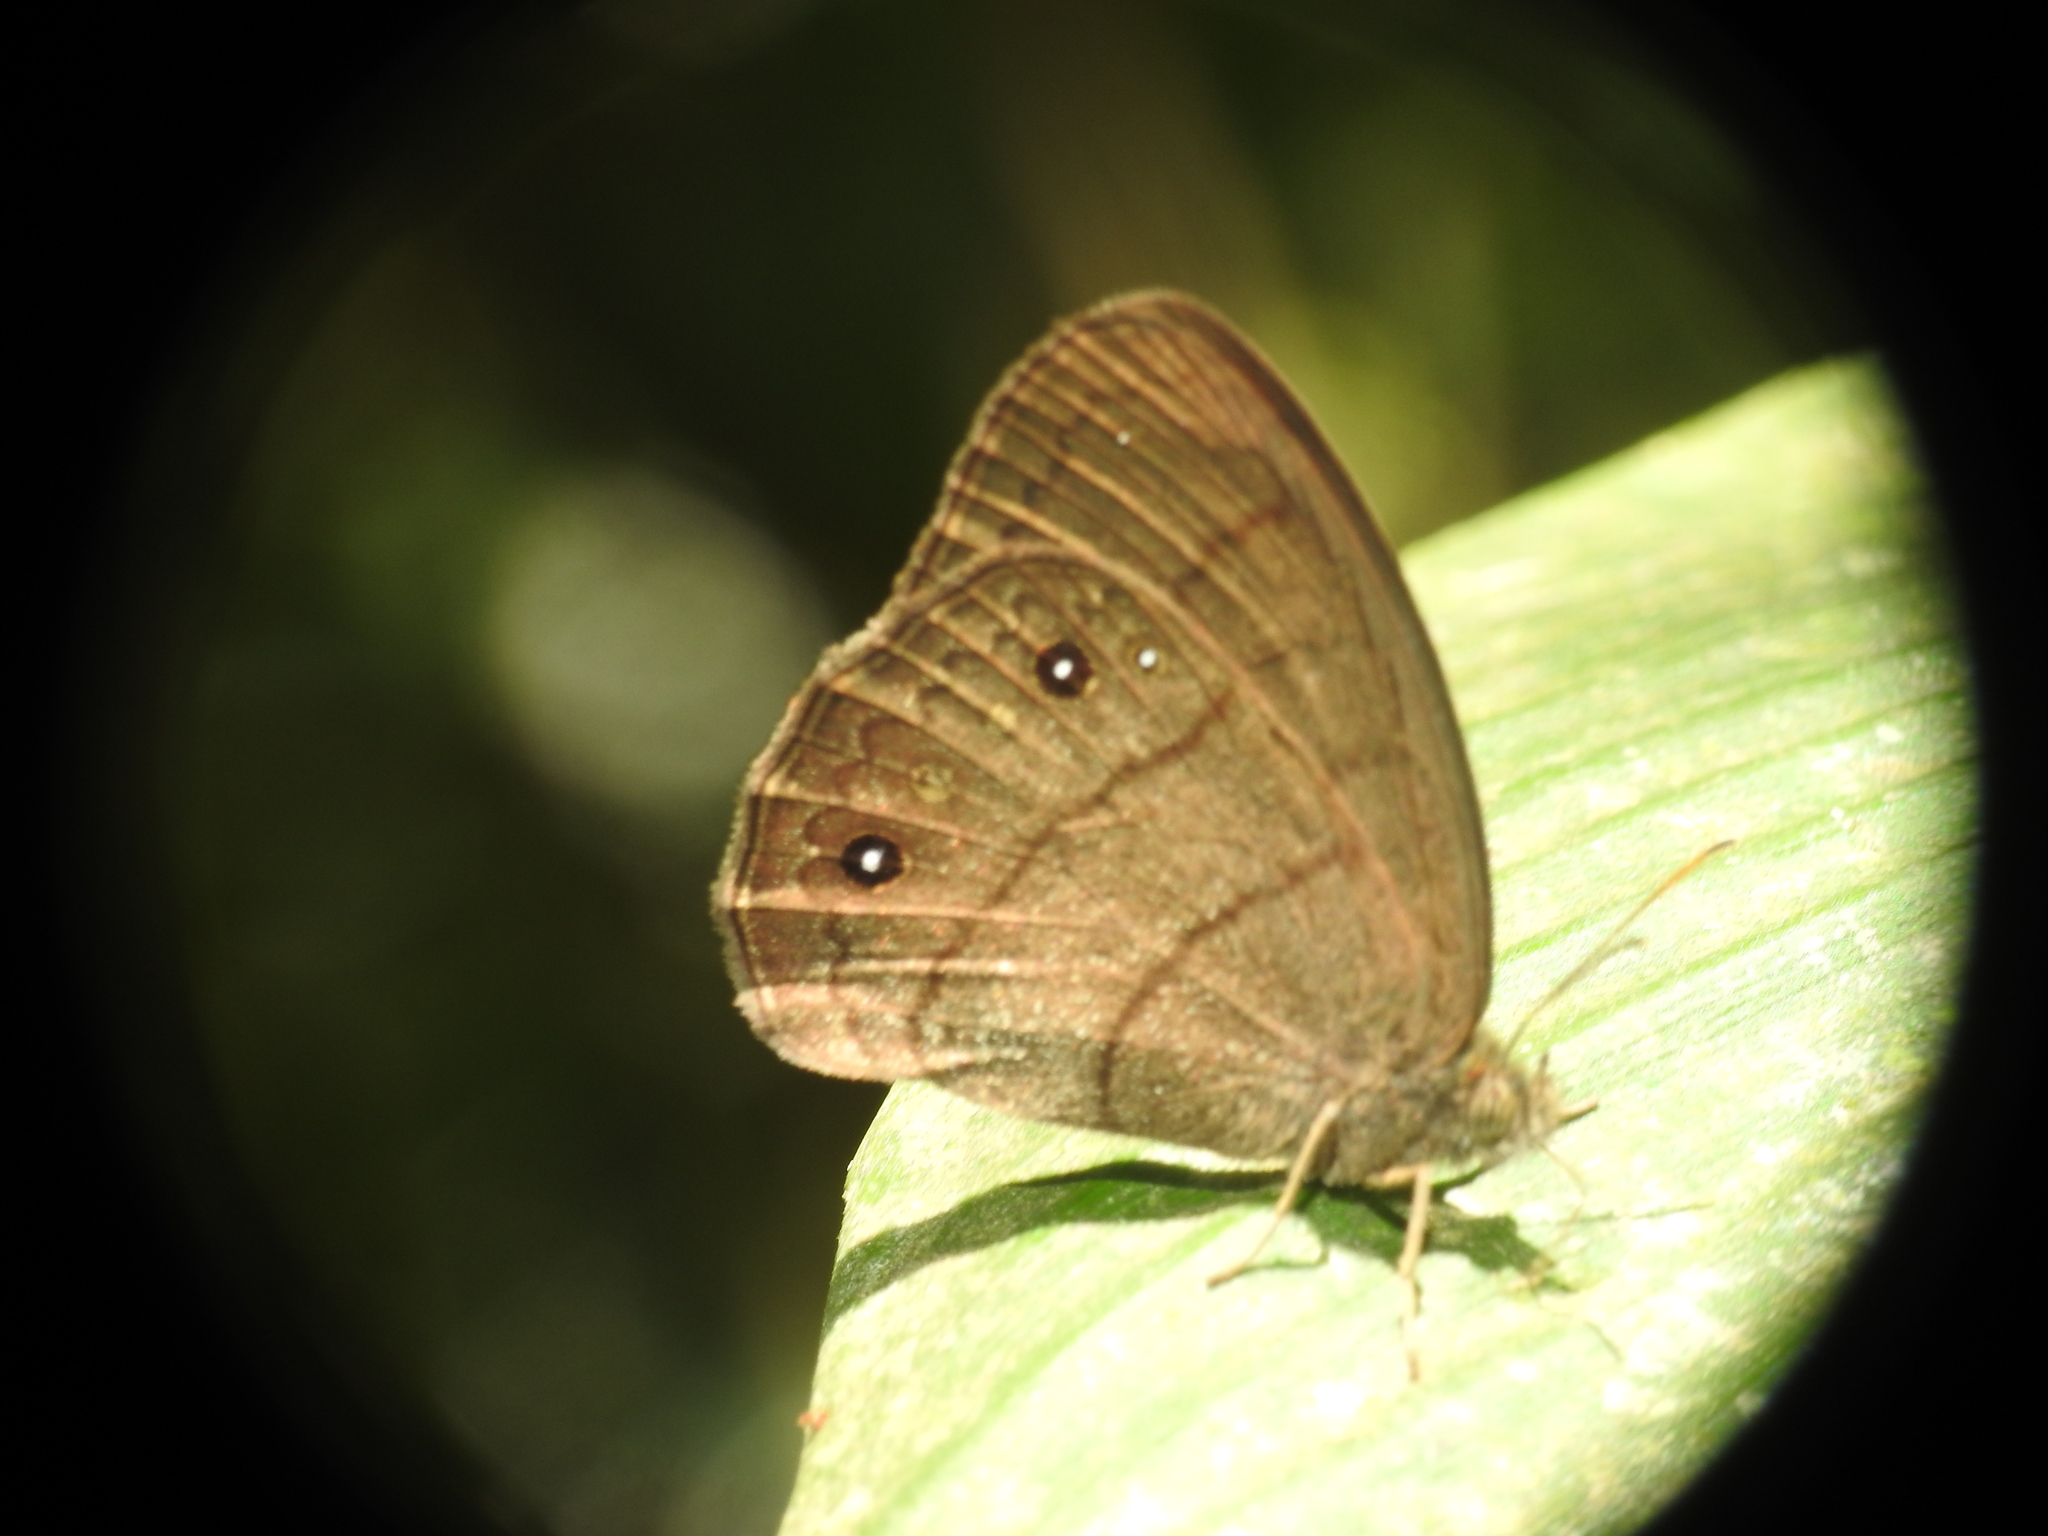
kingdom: Animalia
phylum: Arthropoda
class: Insecta
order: Lepidoptera
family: Nymphalidae
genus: Taygetina
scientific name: Taygetina
